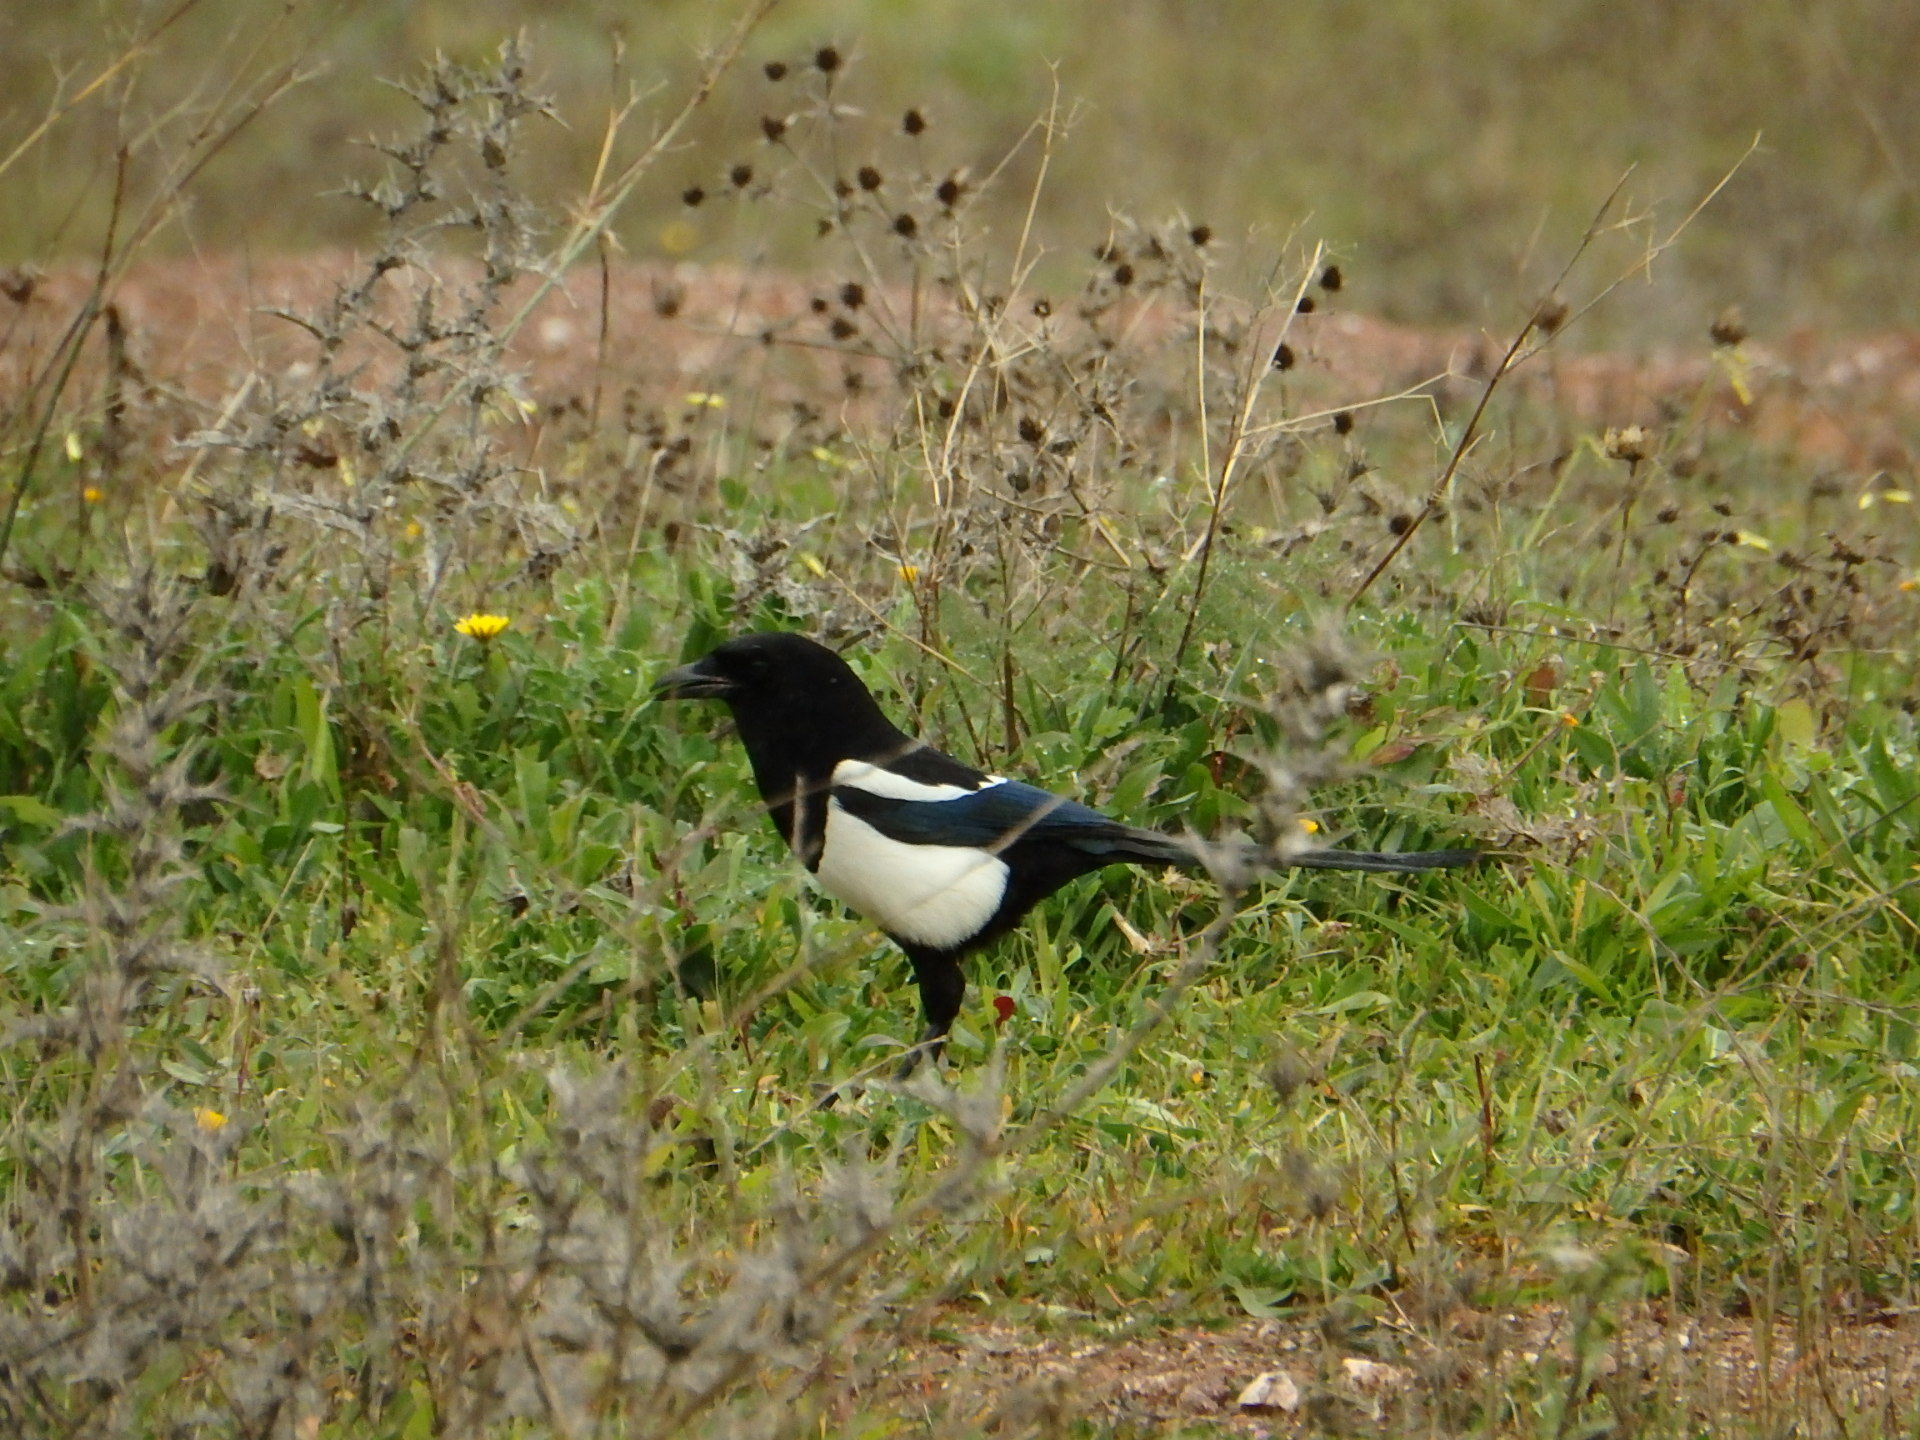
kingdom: Animalia
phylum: Chordata
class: Aves
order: Passeriformes
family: Corvidae
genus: Pica
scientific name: Pica pica
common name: Eurasian magpie
